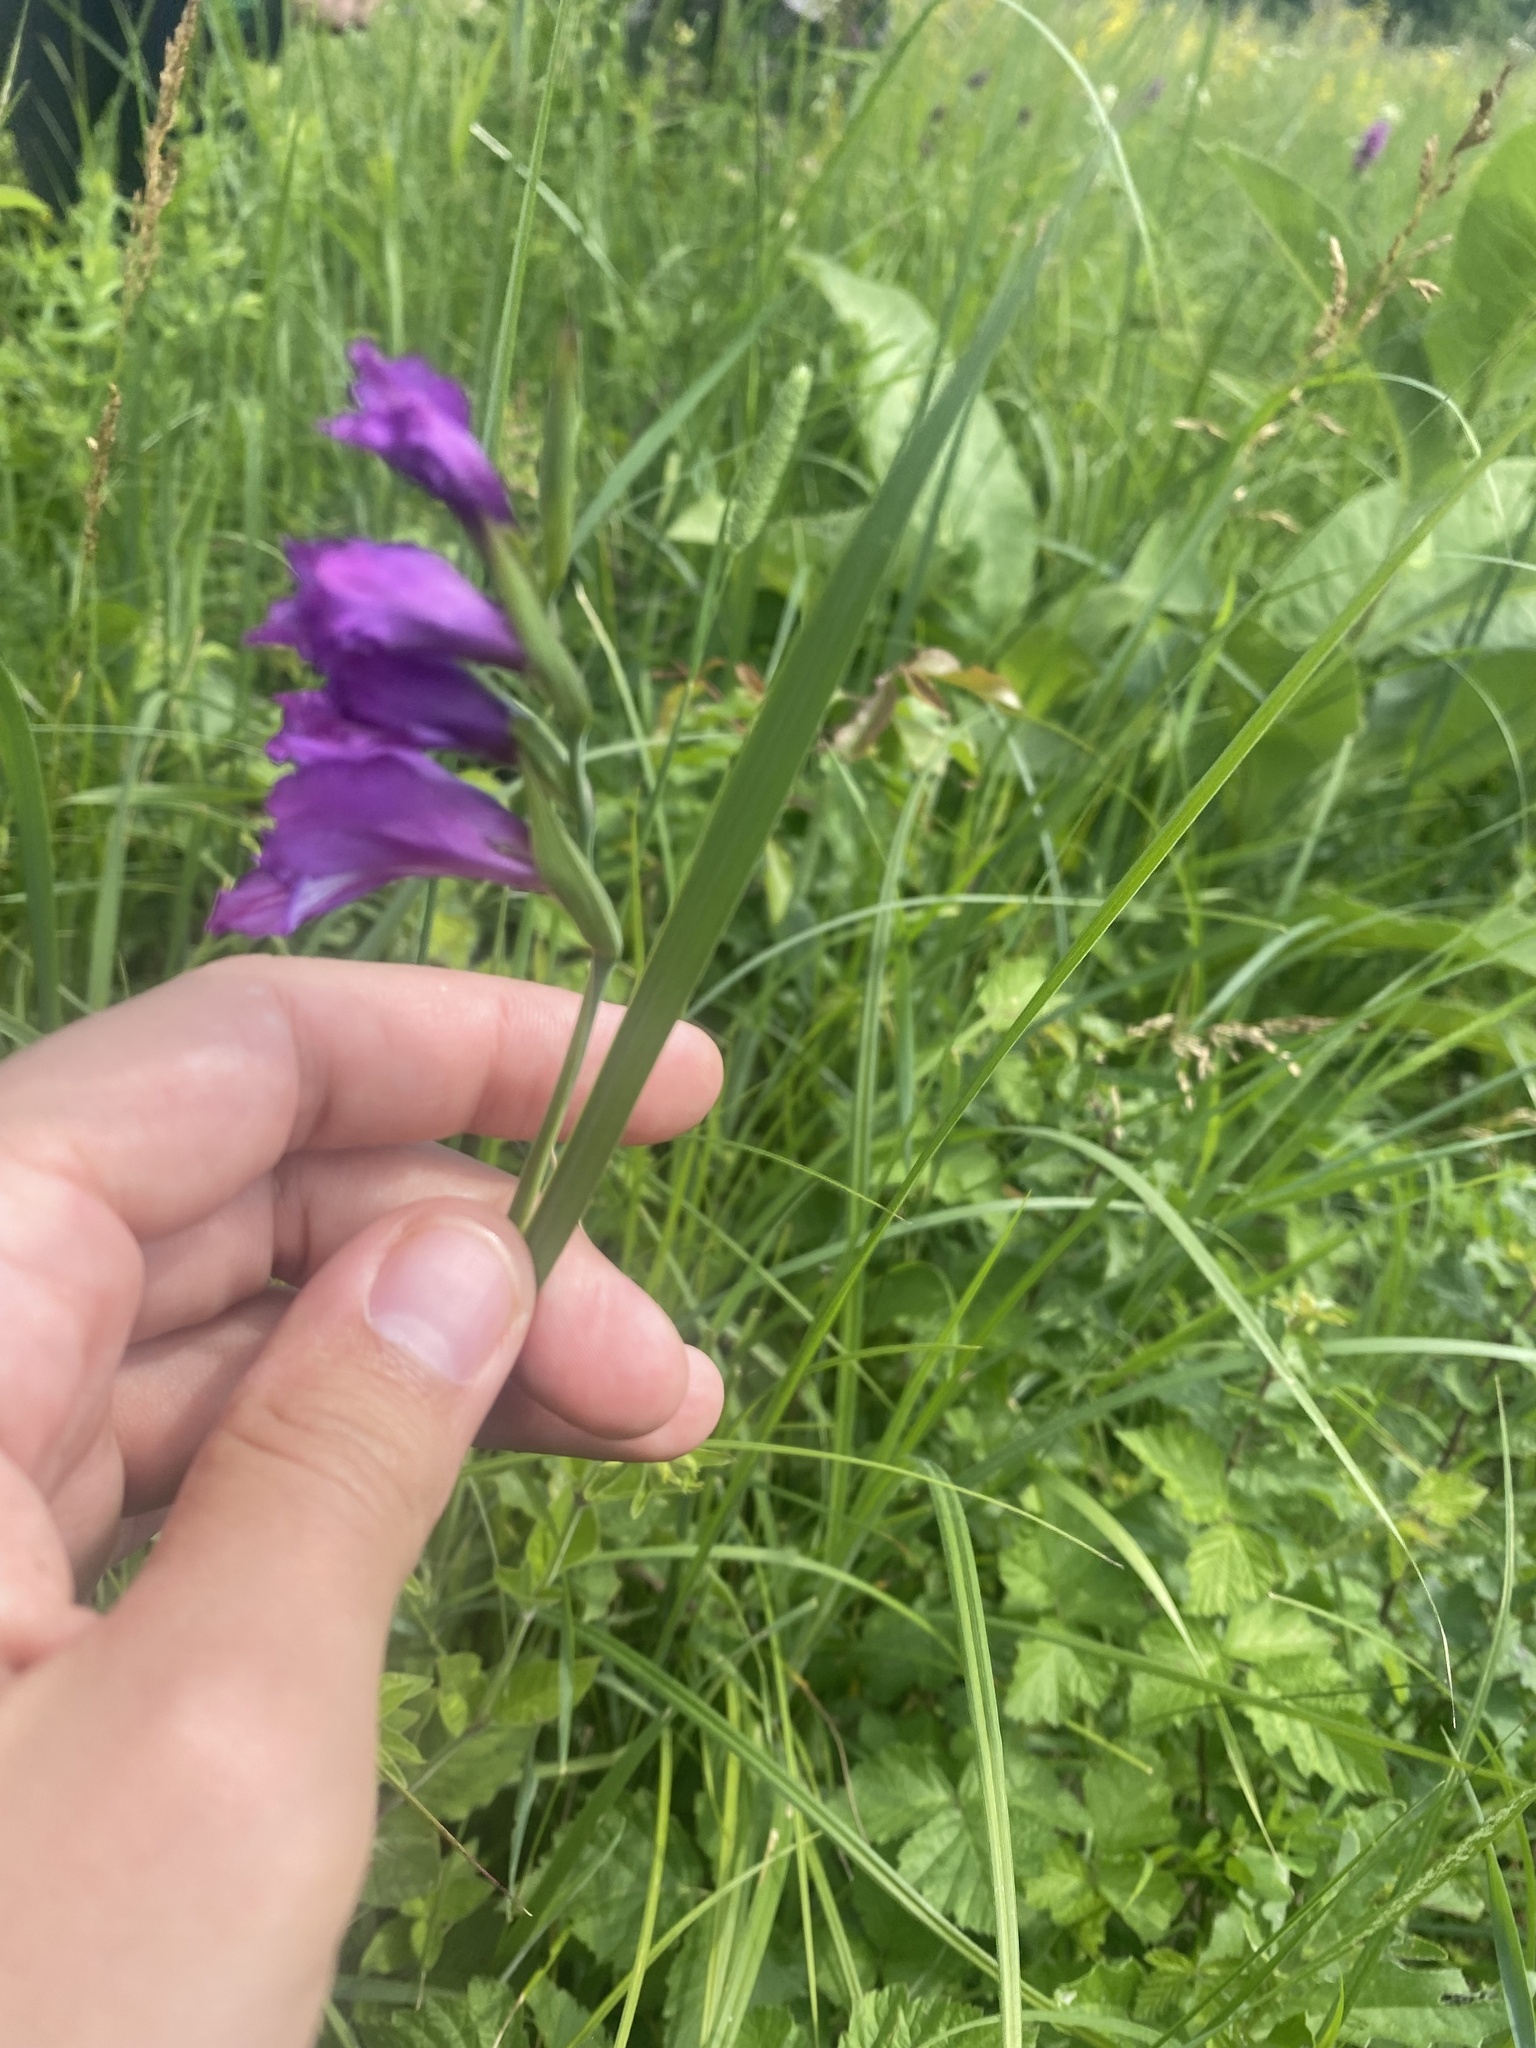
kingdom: Plantae
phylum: Tracheophyta
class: Liliopsida
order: Asparagales
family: Iridaceae
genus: Gladiolus
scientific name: Gladiolus tenuis
